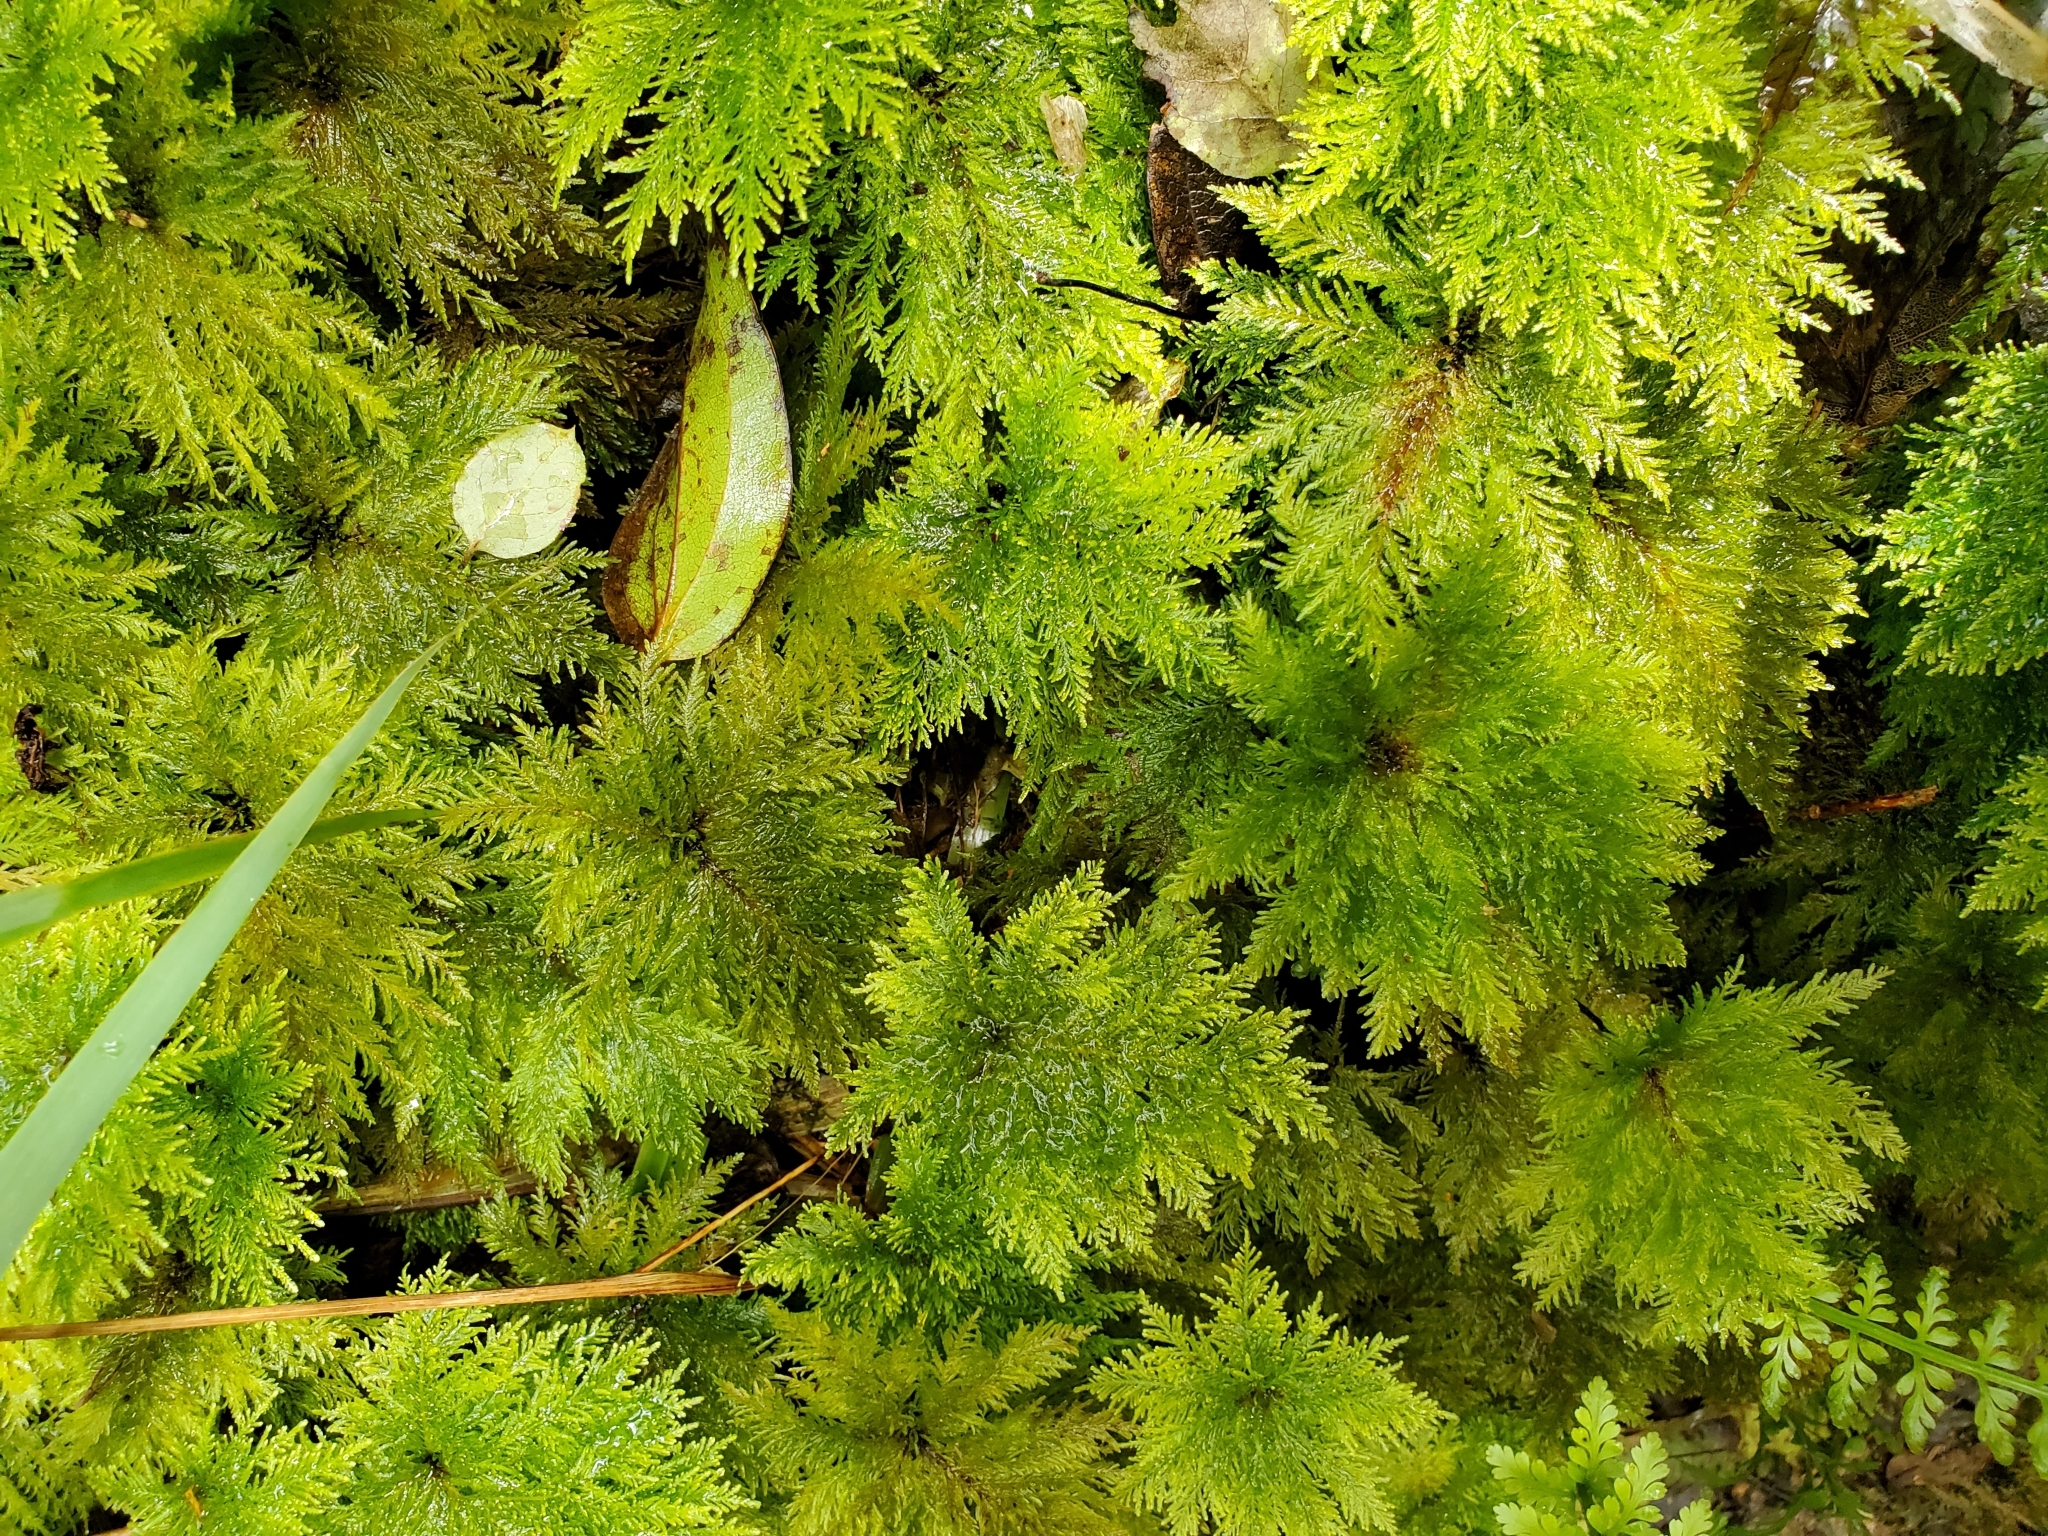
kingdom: Plantae
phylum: Bryophyta
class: Bryopsida
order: Hypopterygiales
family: Hypopterygiaceae
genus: Dendrohypopterygium
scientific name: Dendrohypopterygium filiculiforme
